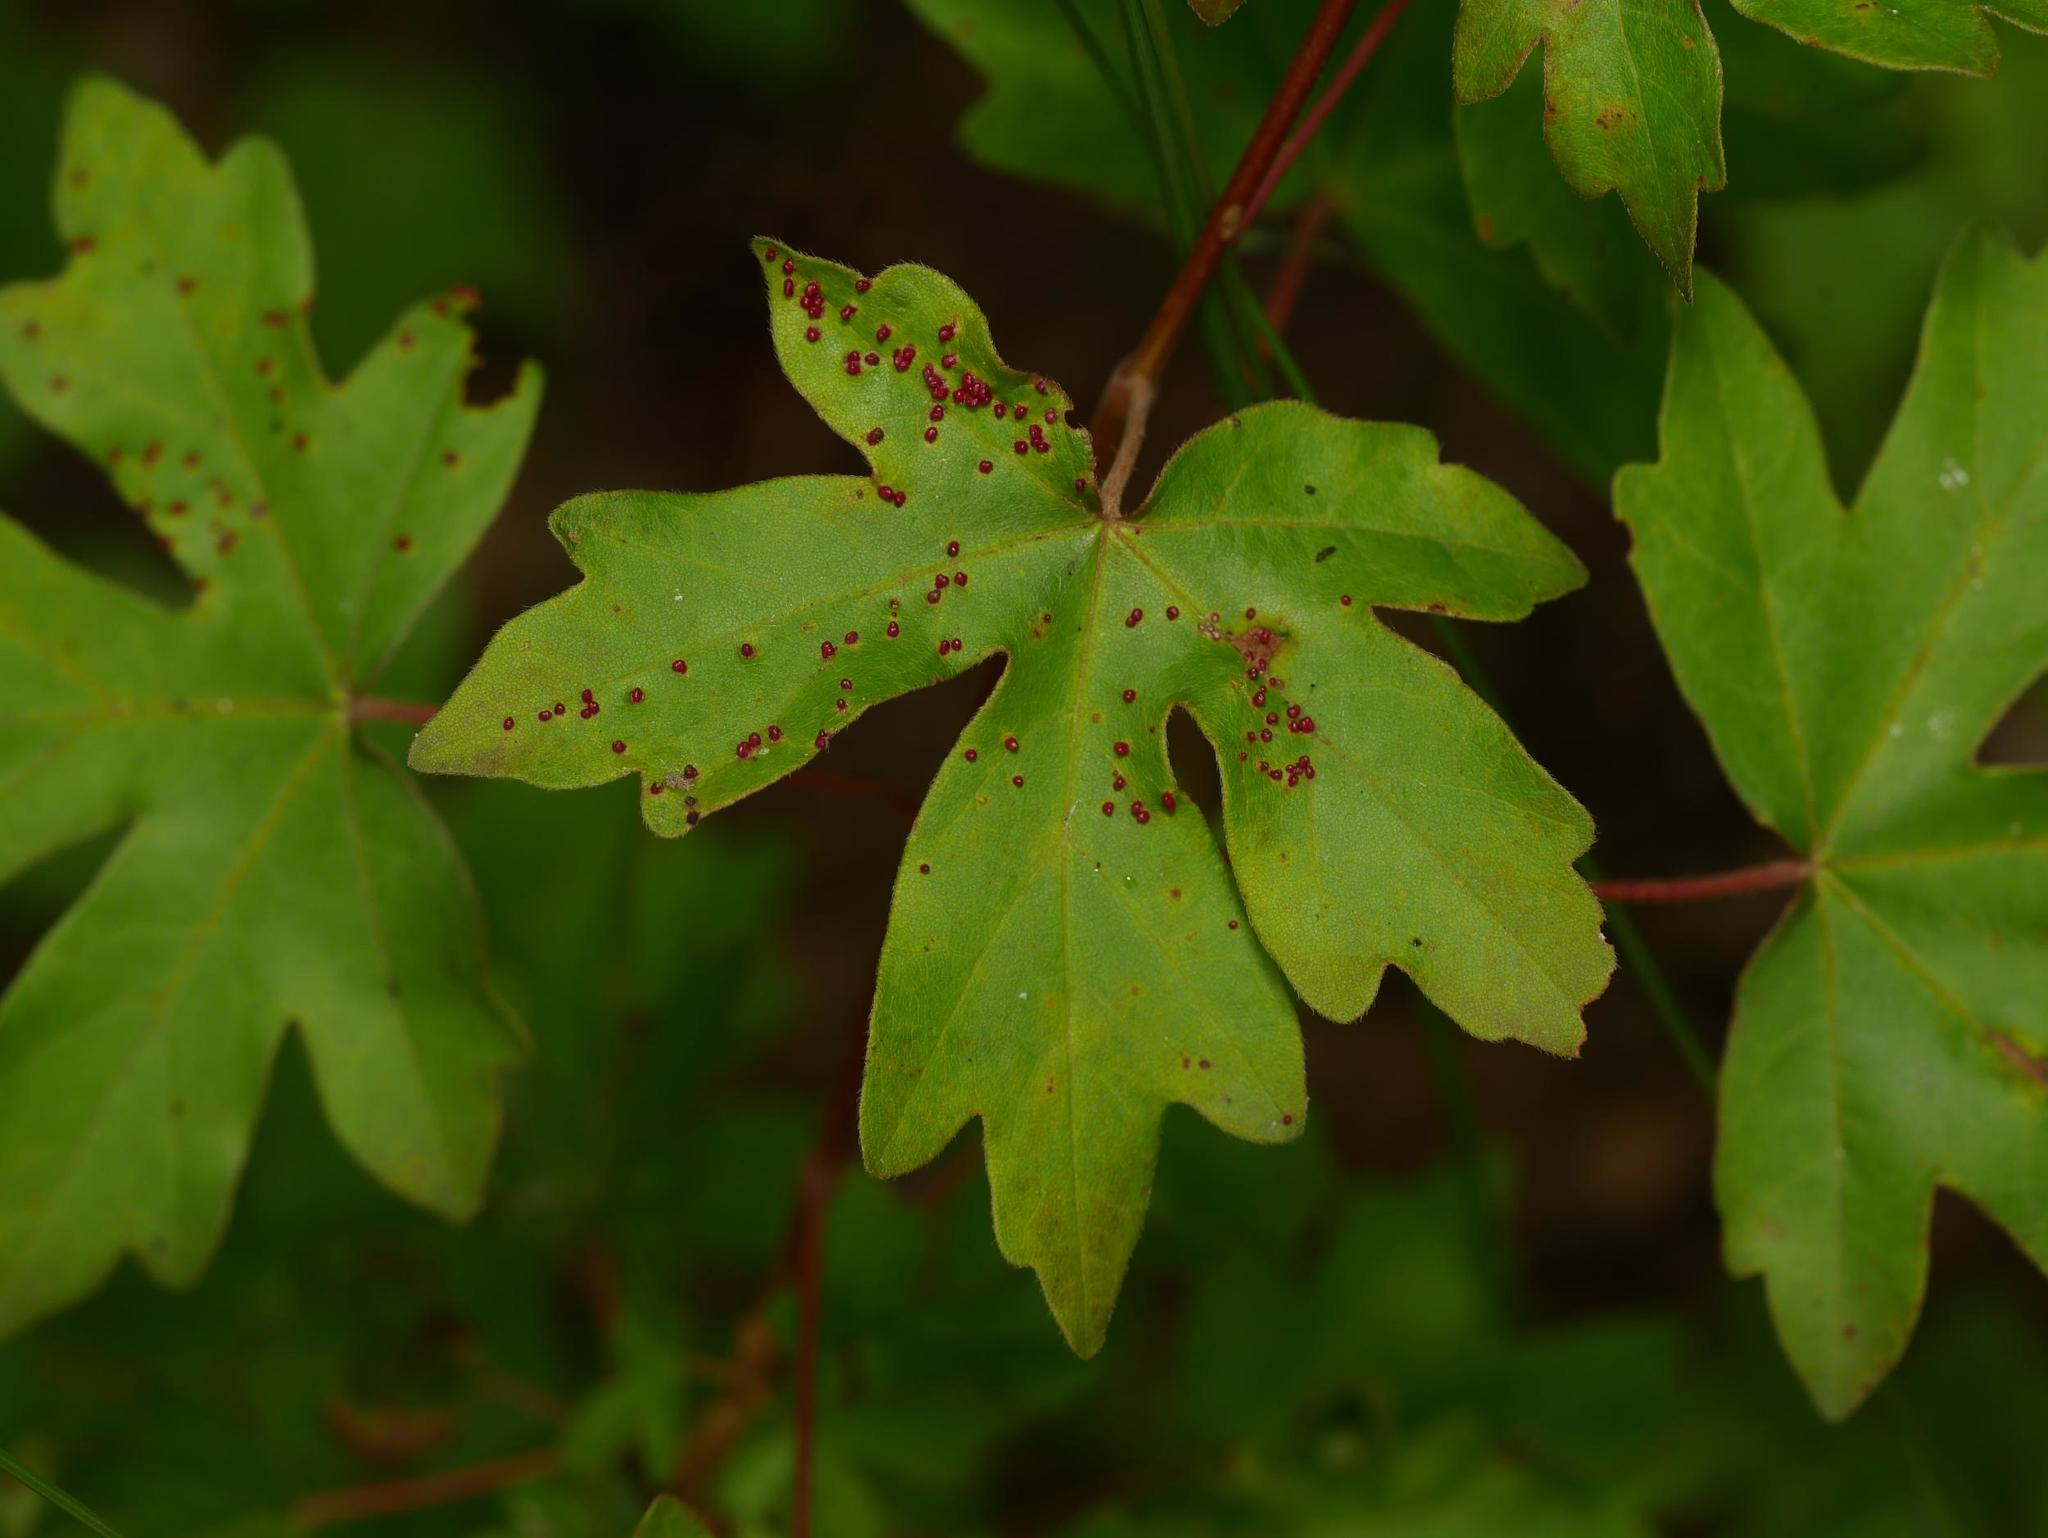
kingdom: Plantae
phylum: Tracheophyta
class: Magnoliopsida
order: Sapindales
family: Sapindaceae
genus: Acer
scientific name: Acer campestre
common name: Field maple
